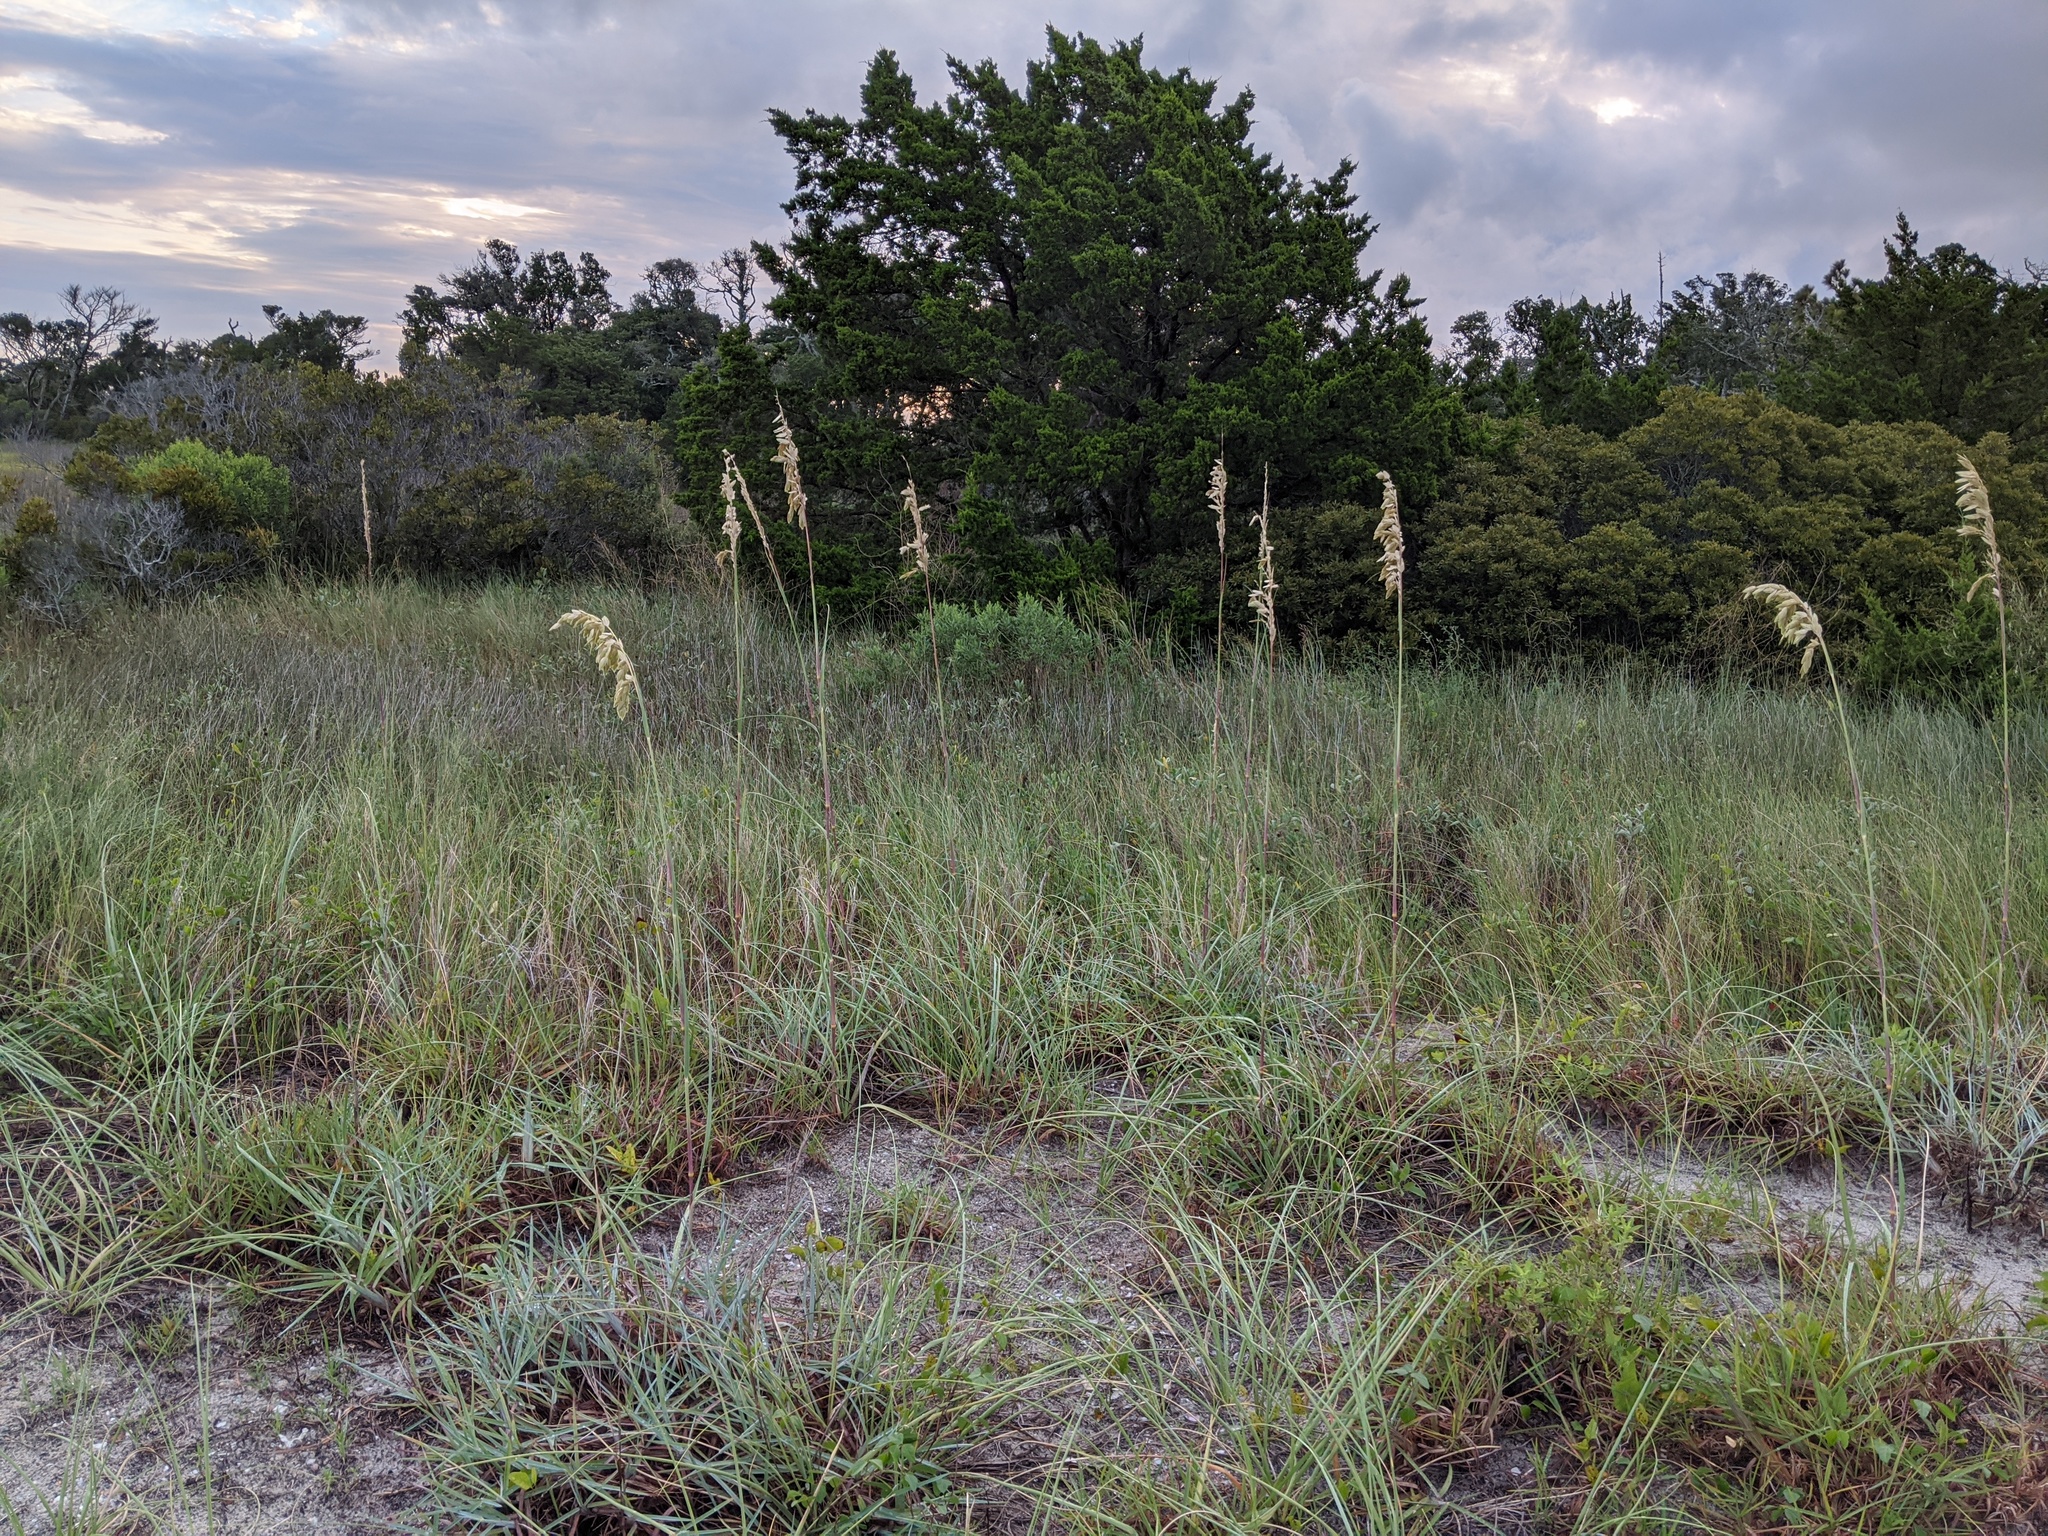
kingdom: Plantae
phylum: Tracheophyta
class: Liliopsida
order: Poales
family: Poaceae
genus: Uniola
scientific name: Uniola paniculata
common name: Seaside-oats
